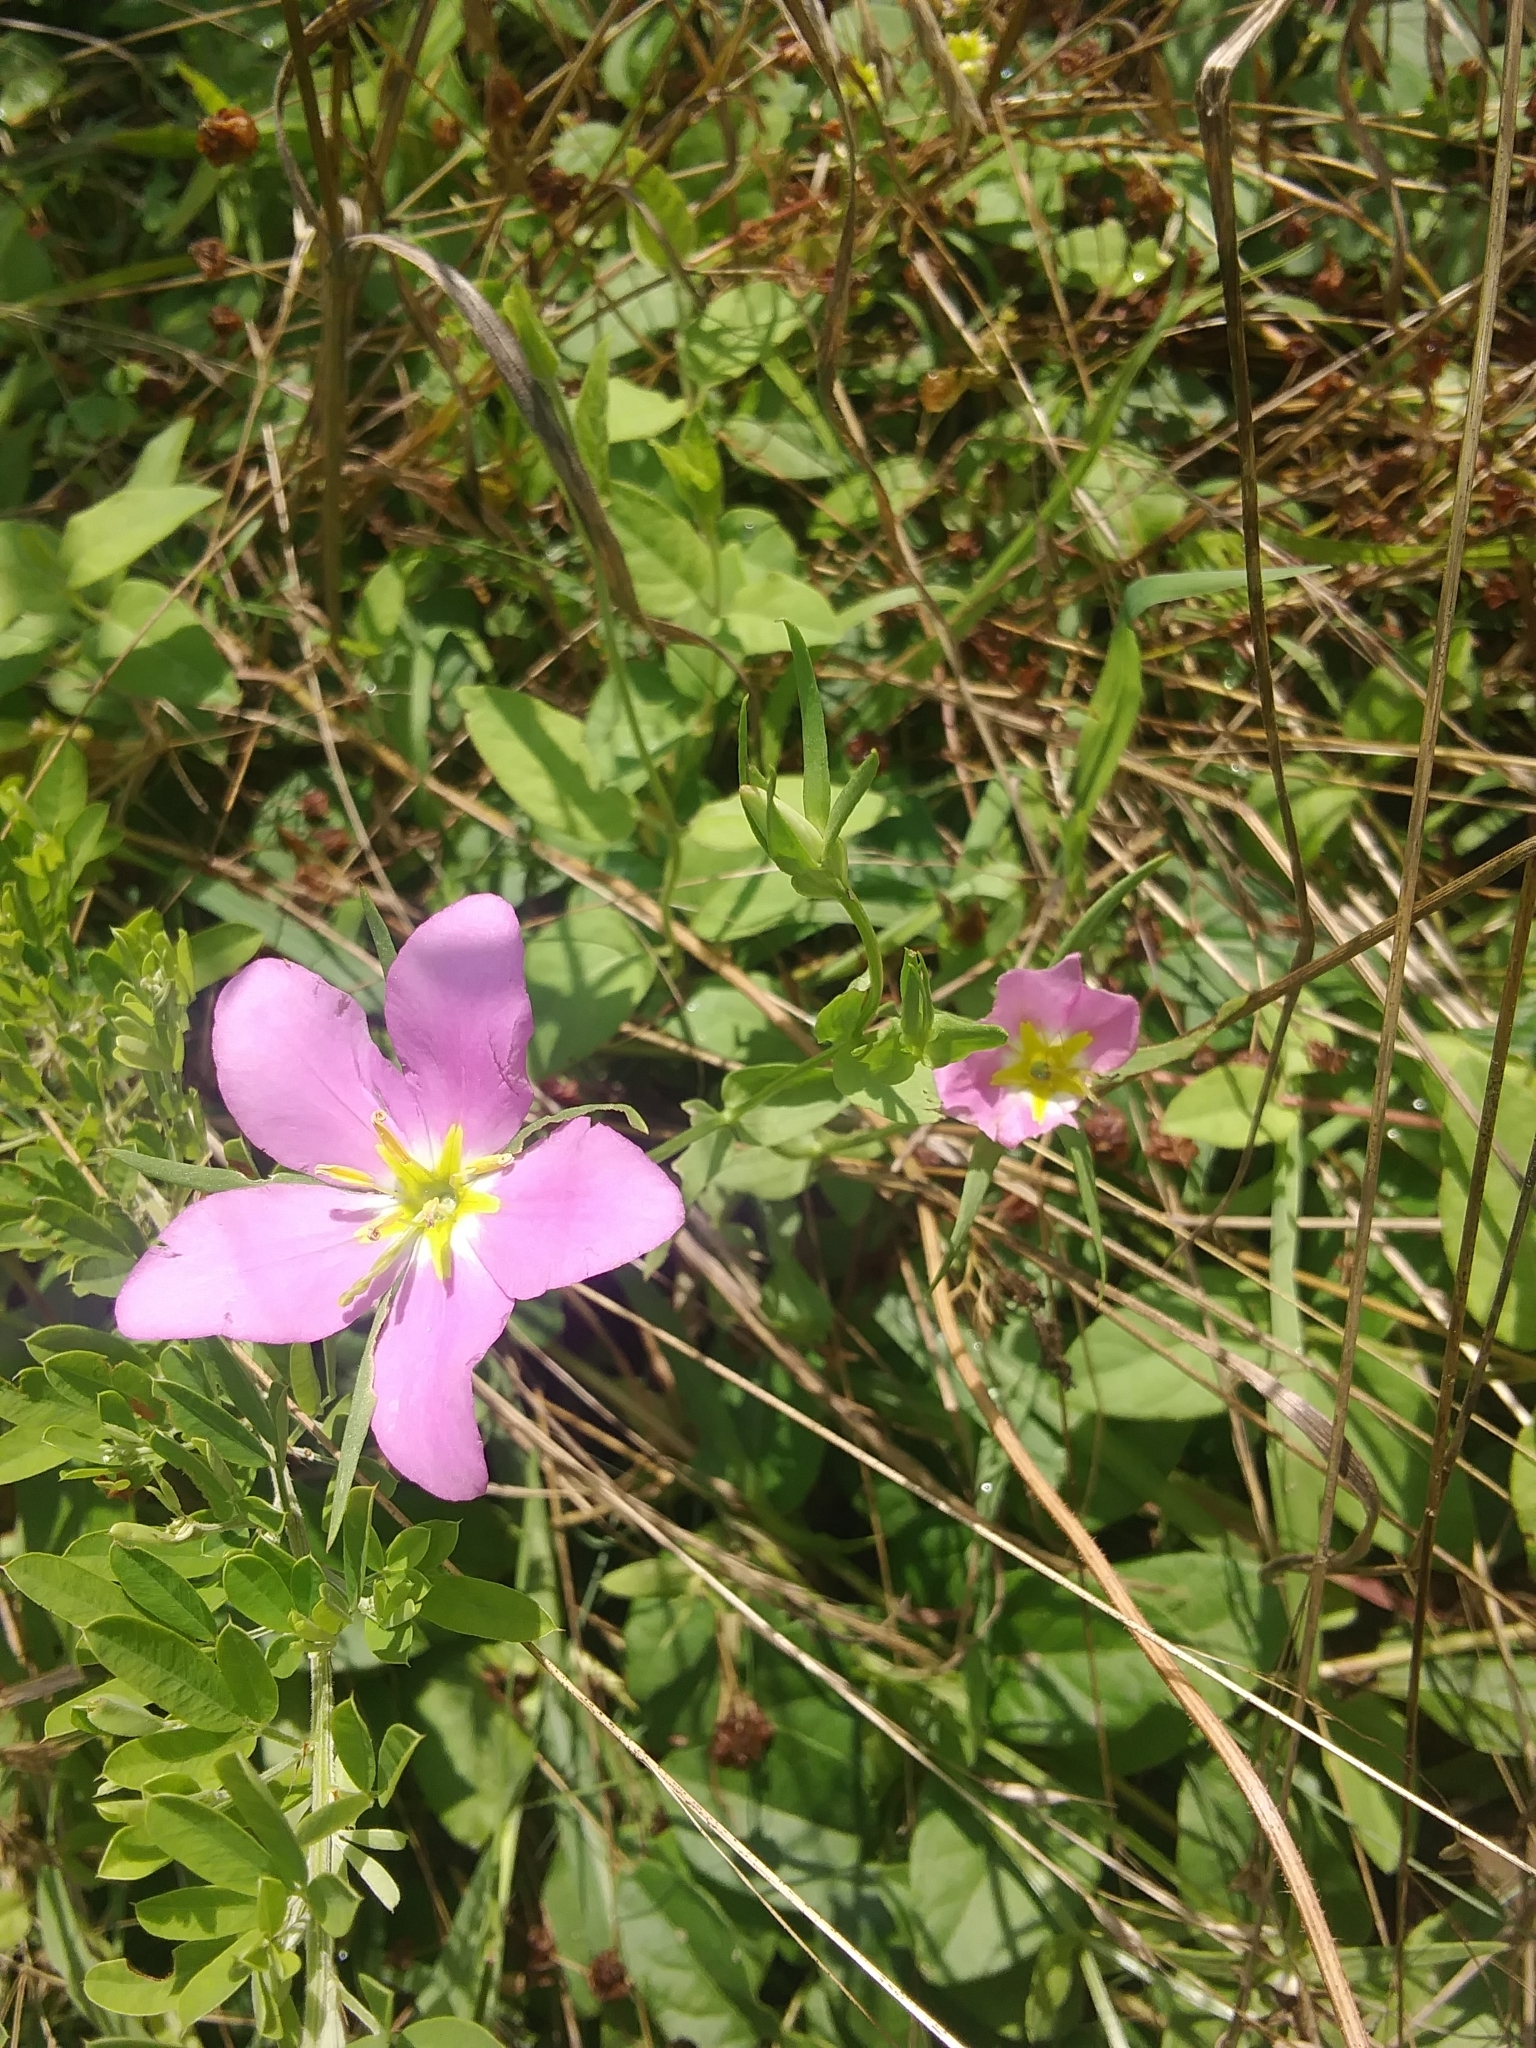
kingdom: Plantae
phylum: Tracheophyta
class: Magnoliopsida
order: Gentianales
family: Gentianaceae
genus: Sabatia
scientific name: Sabatia campestris
